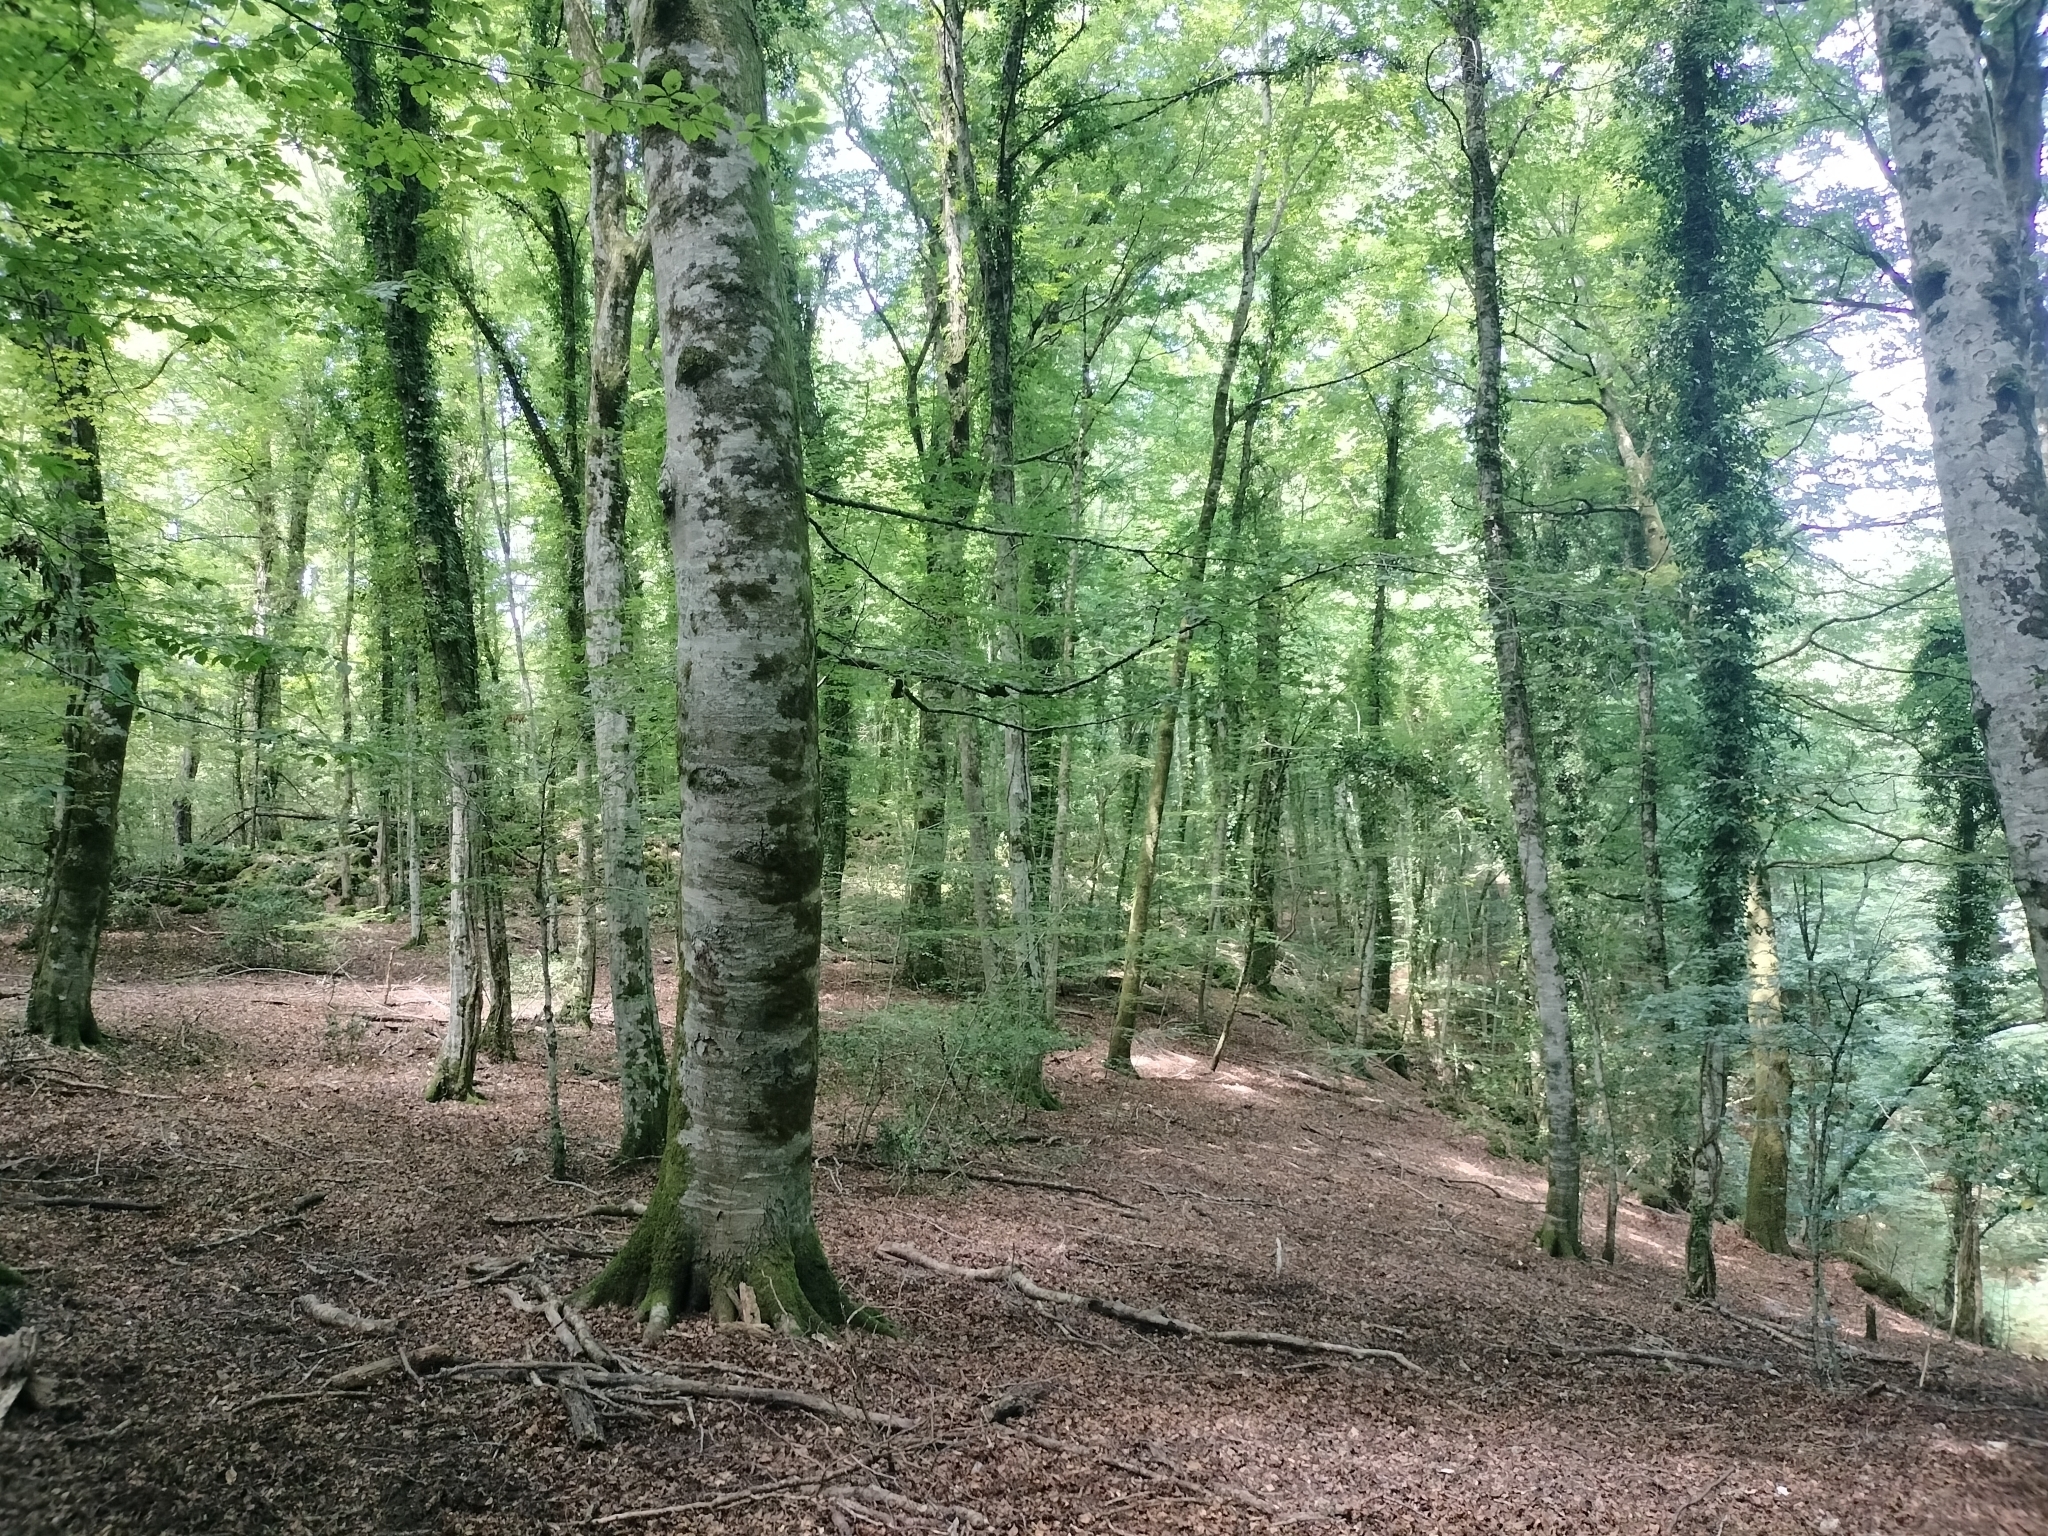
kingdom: Plantae
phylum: Tracheophyta
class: Magnoliopsida
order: Fagales
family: Fagaceae
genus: Fagus
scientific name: Fagus sylvatica
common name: Beech
